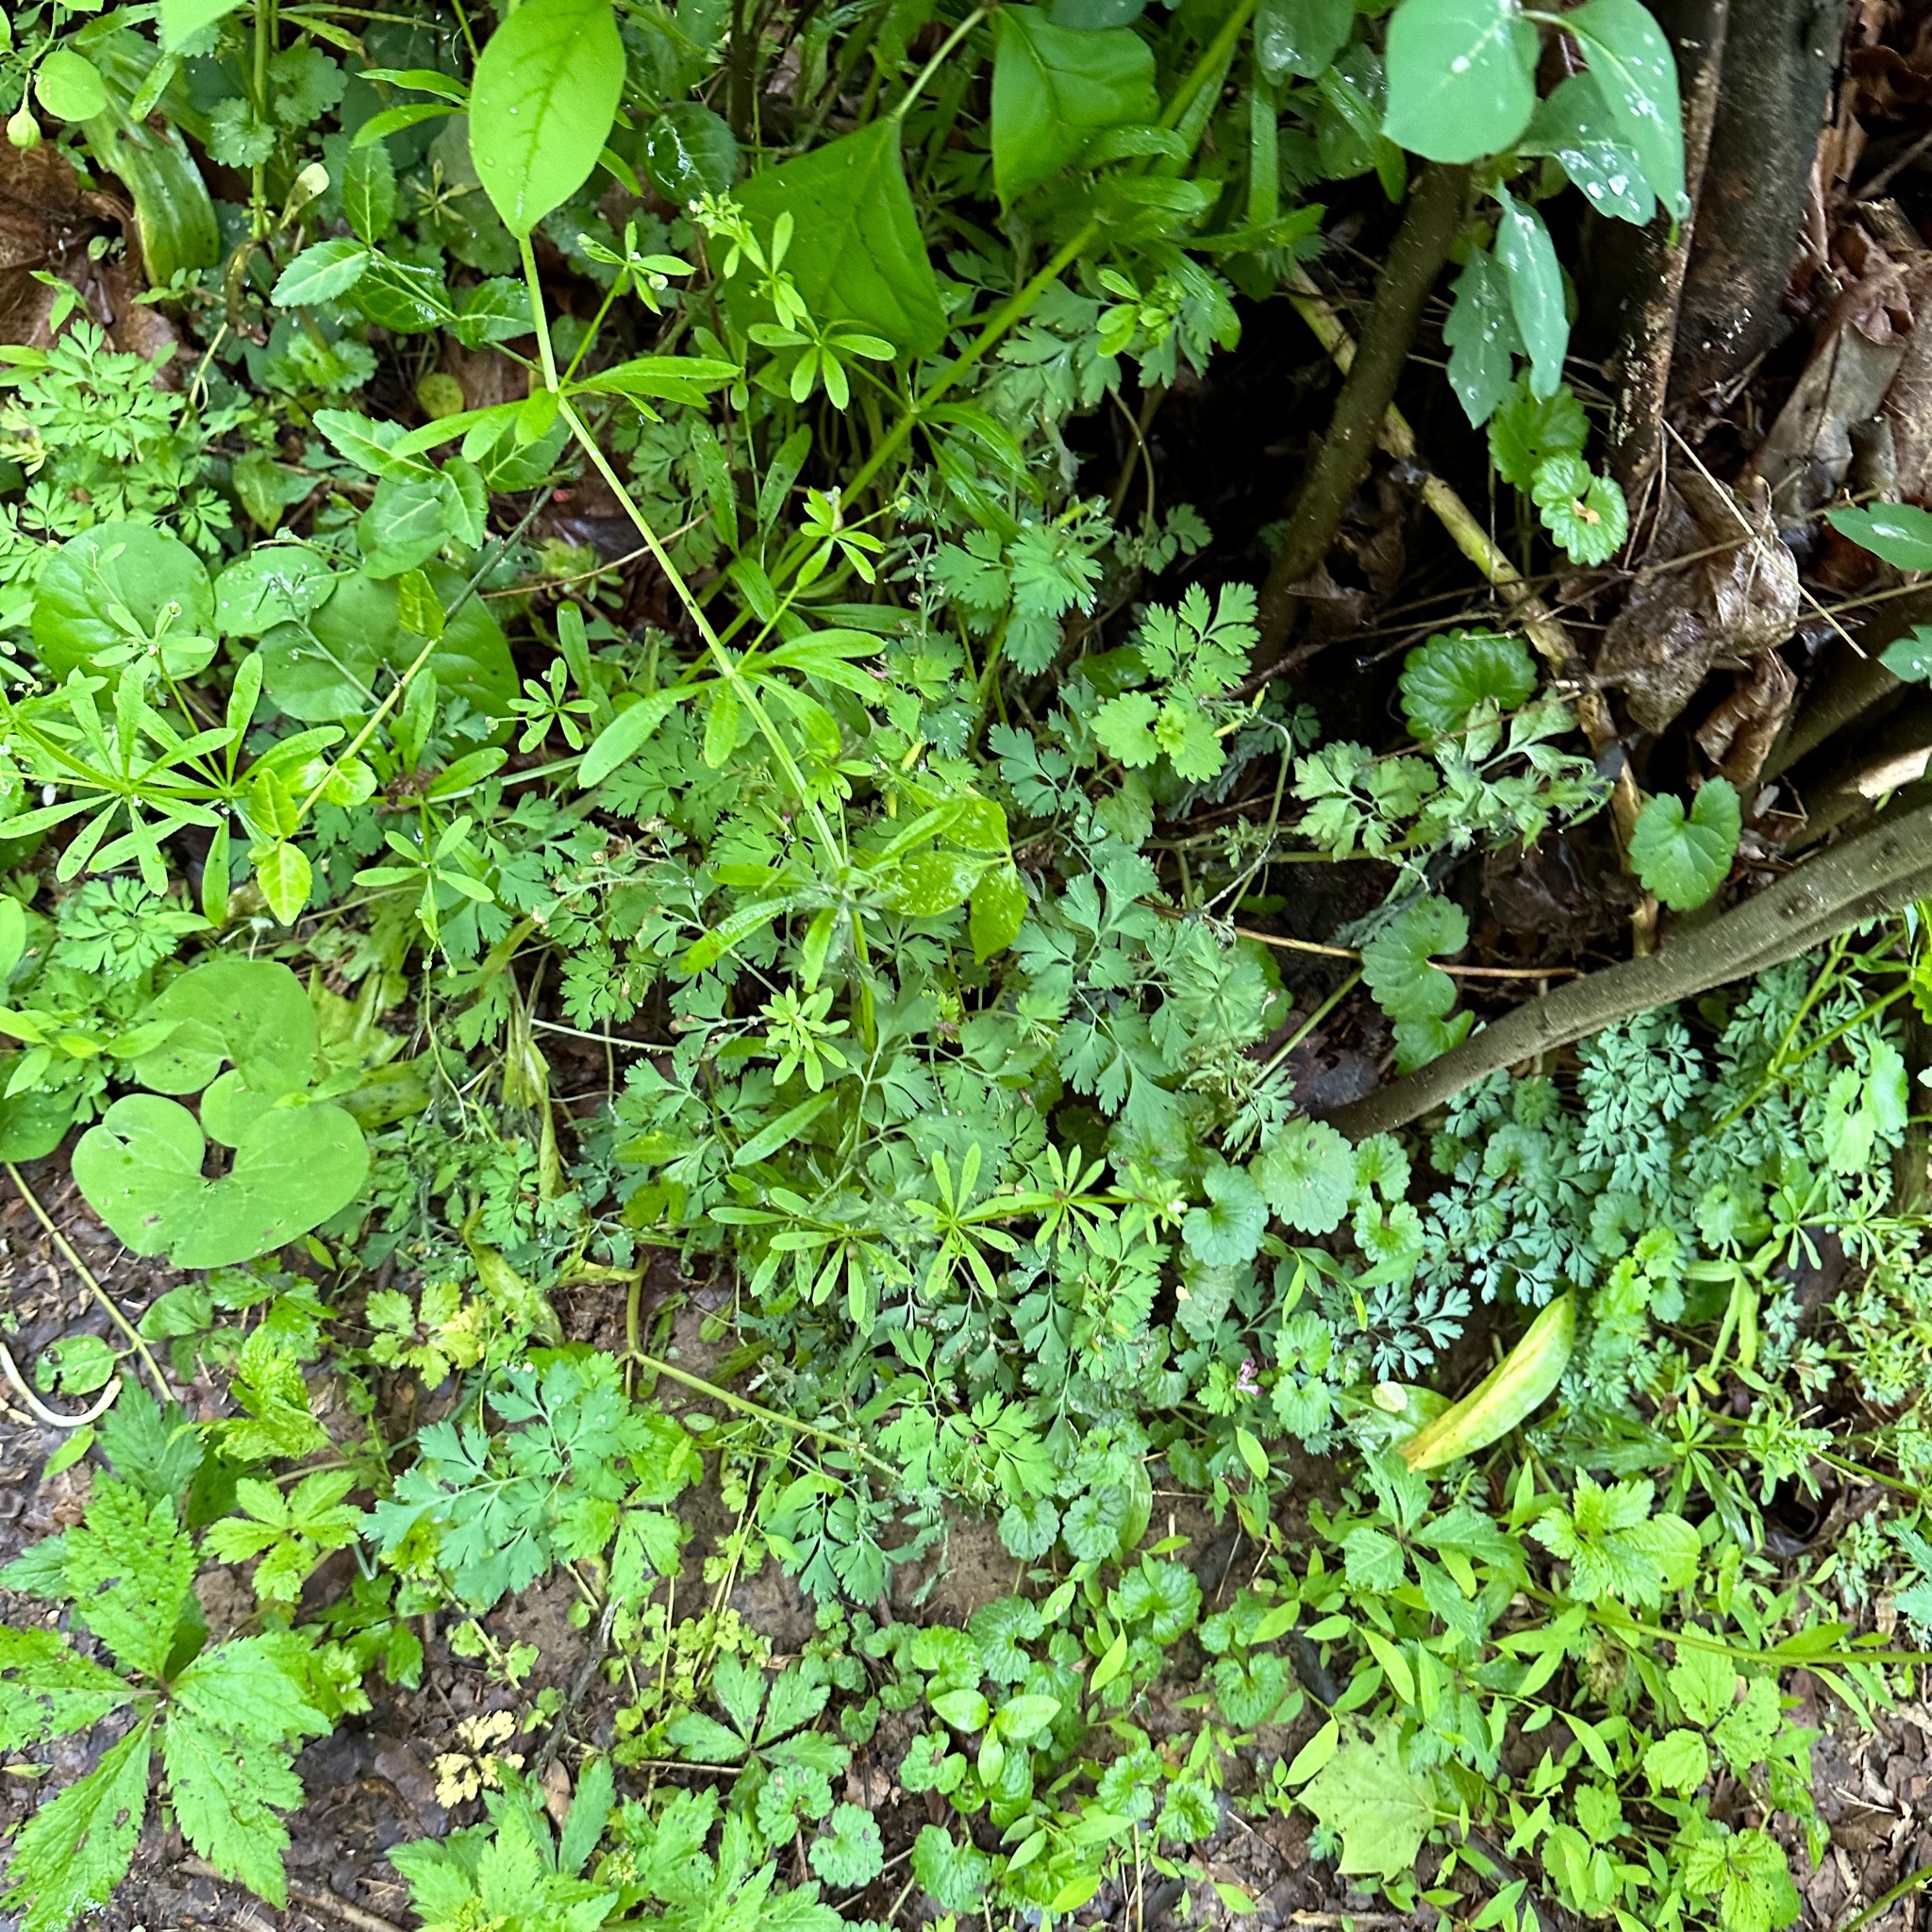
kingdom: Plantae
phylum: Tracheophyta
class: Magnoliopsida
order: Ranunculales
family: Papaveraceae
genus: Corydalis
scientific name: Corydalis incisa
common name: Incised fumewort
